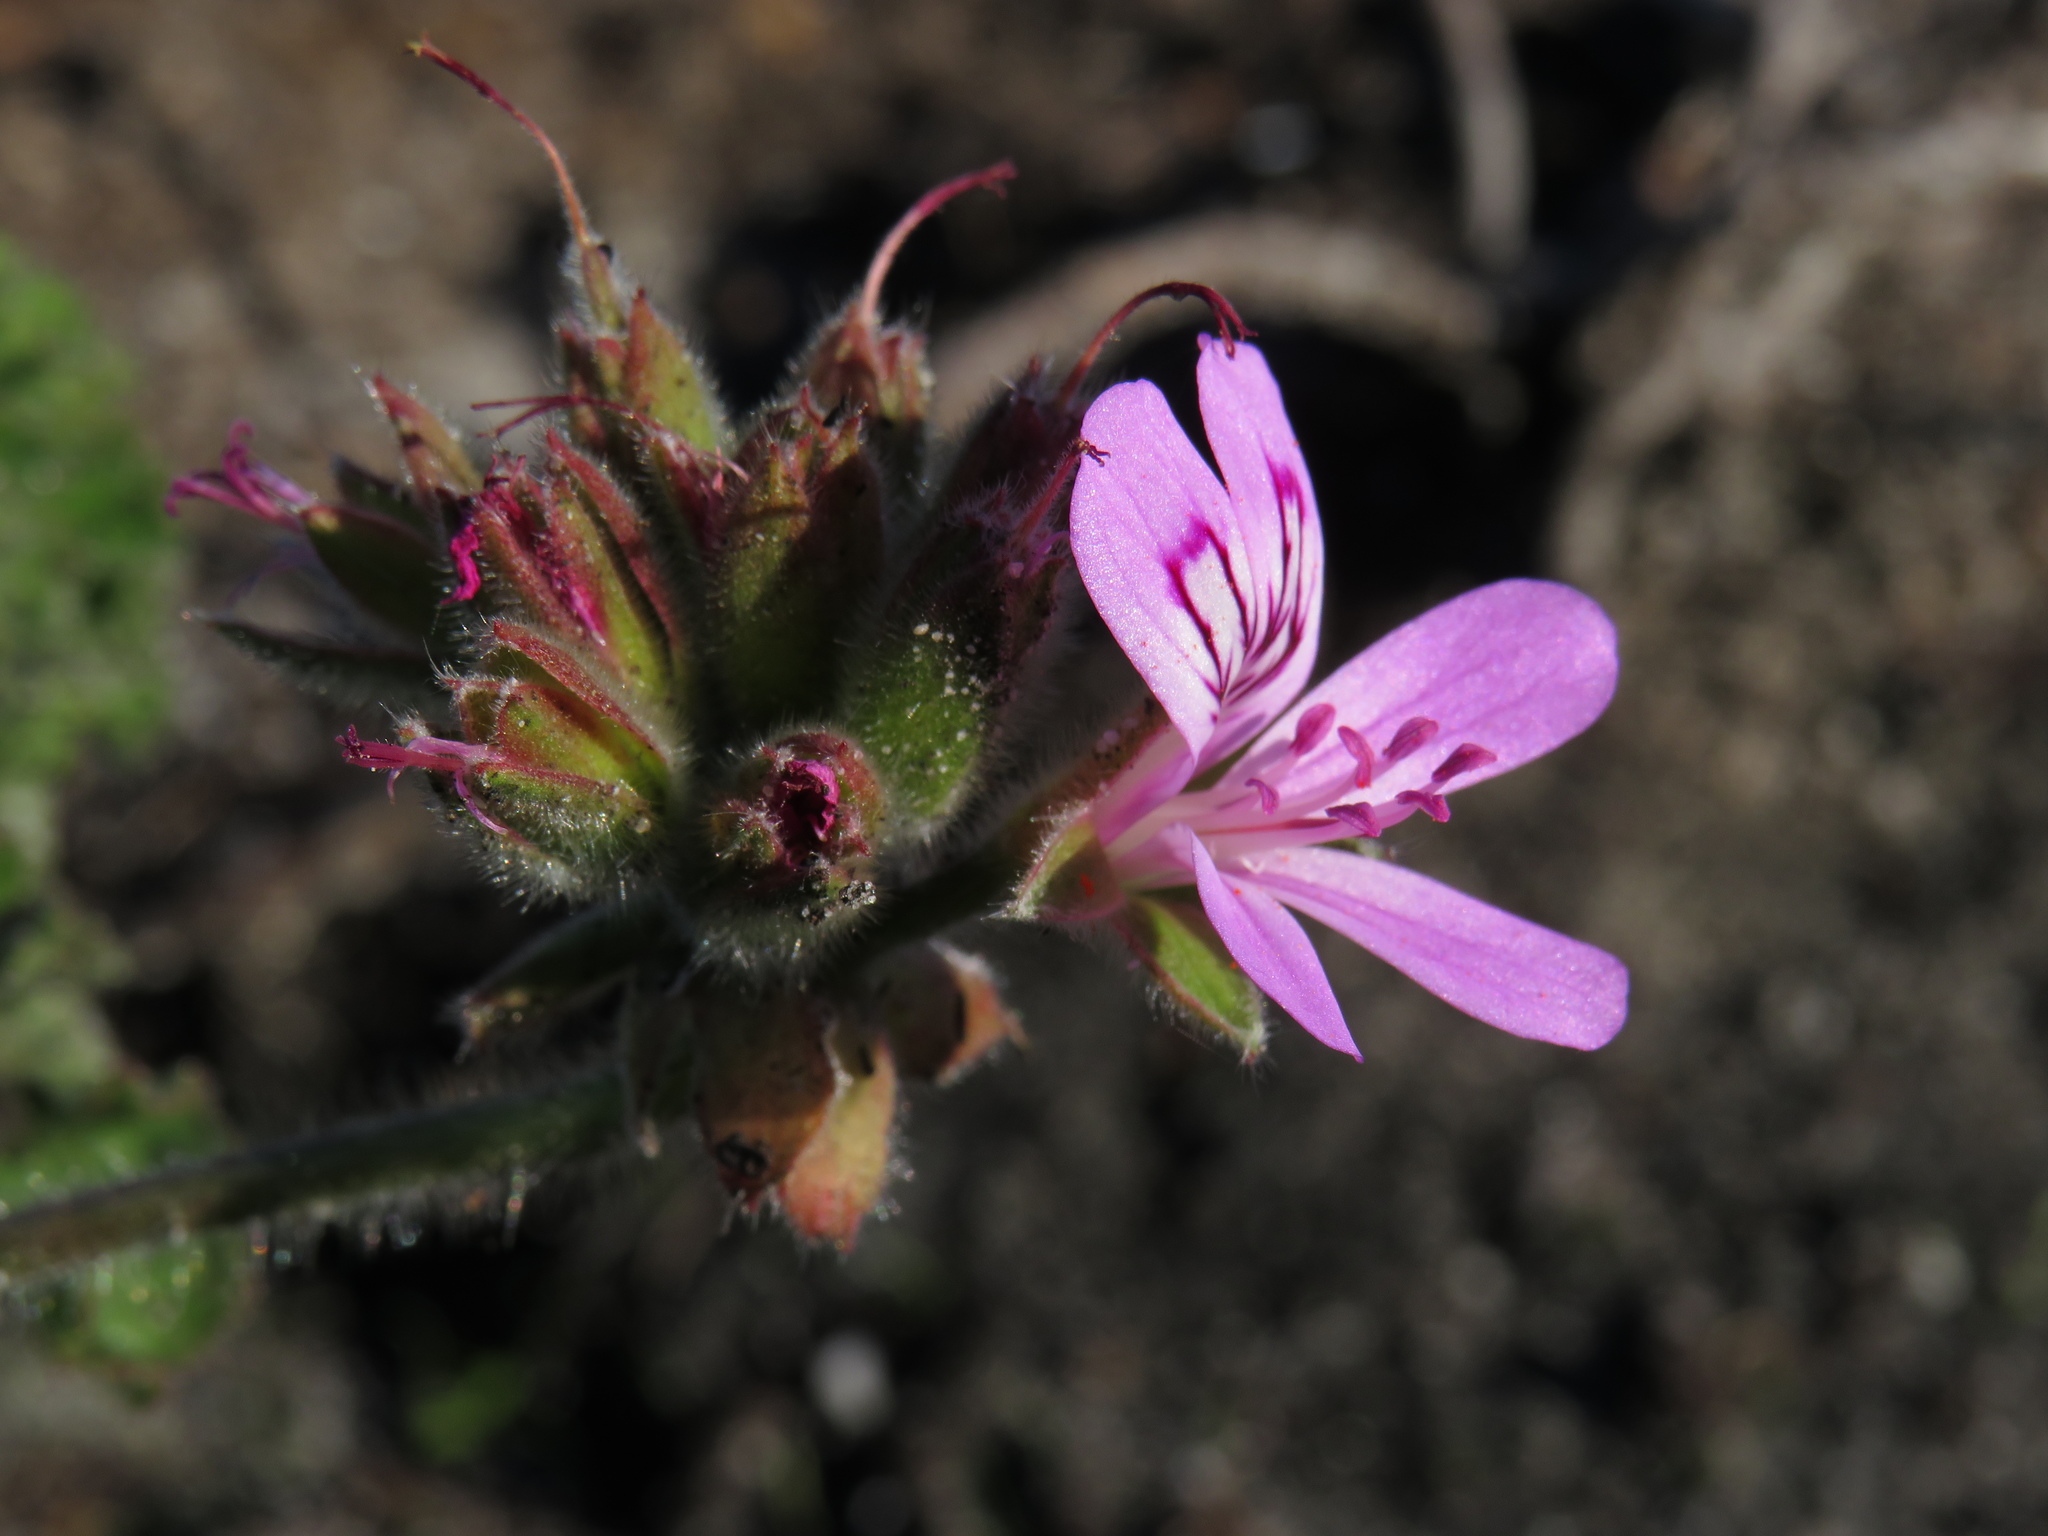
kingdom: Plantae
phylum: Tracheophyta
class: Magnoliopsida
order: Geraniales
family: Geraniaceae
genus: Pelargonium
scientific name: Pelargonium capitatum
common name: Rose scented geranium
